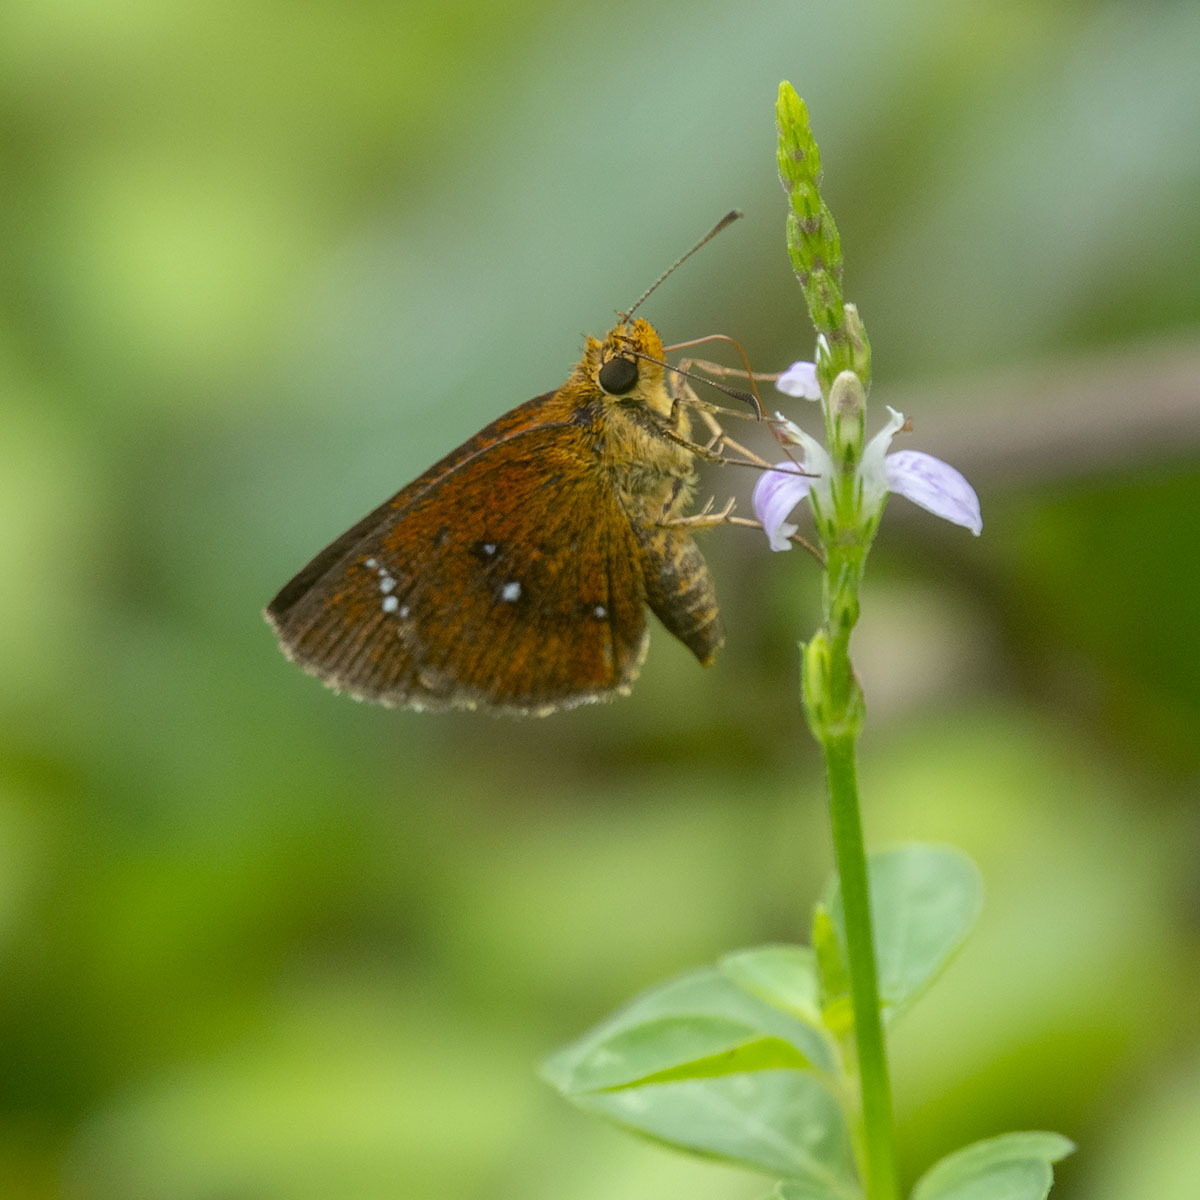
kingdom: Animalia
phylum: Arthropoda
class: Insecta
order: Lepidoptera
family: Hesperiidae
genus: Iambrix
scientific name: Iambrix salsala
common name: Chestnut bob
